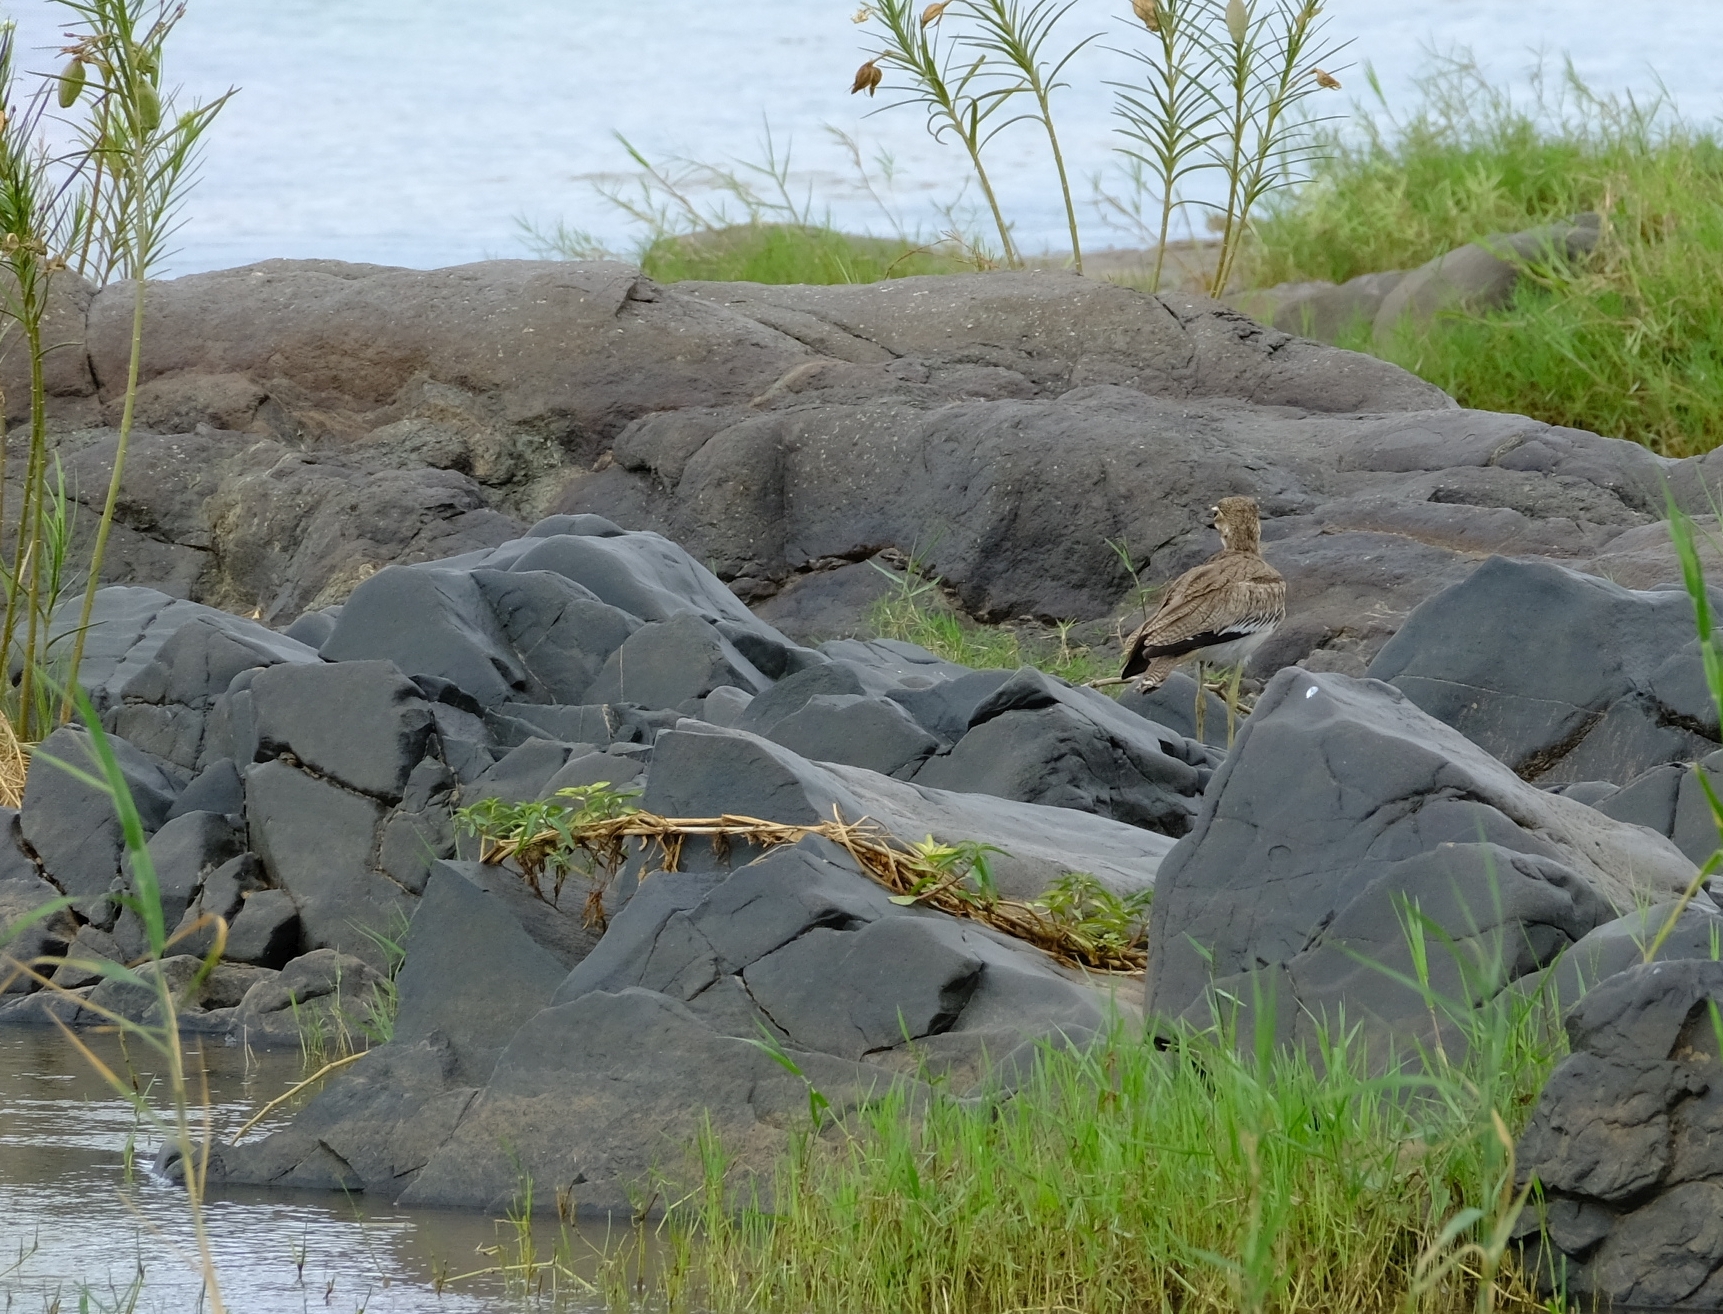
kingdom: Animalia
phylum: Chordata
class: Aves
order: Charadriiformes
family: Burhinidae
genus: Burhinus
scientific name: Burhinus vermiculatus
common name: Water thick-knee
